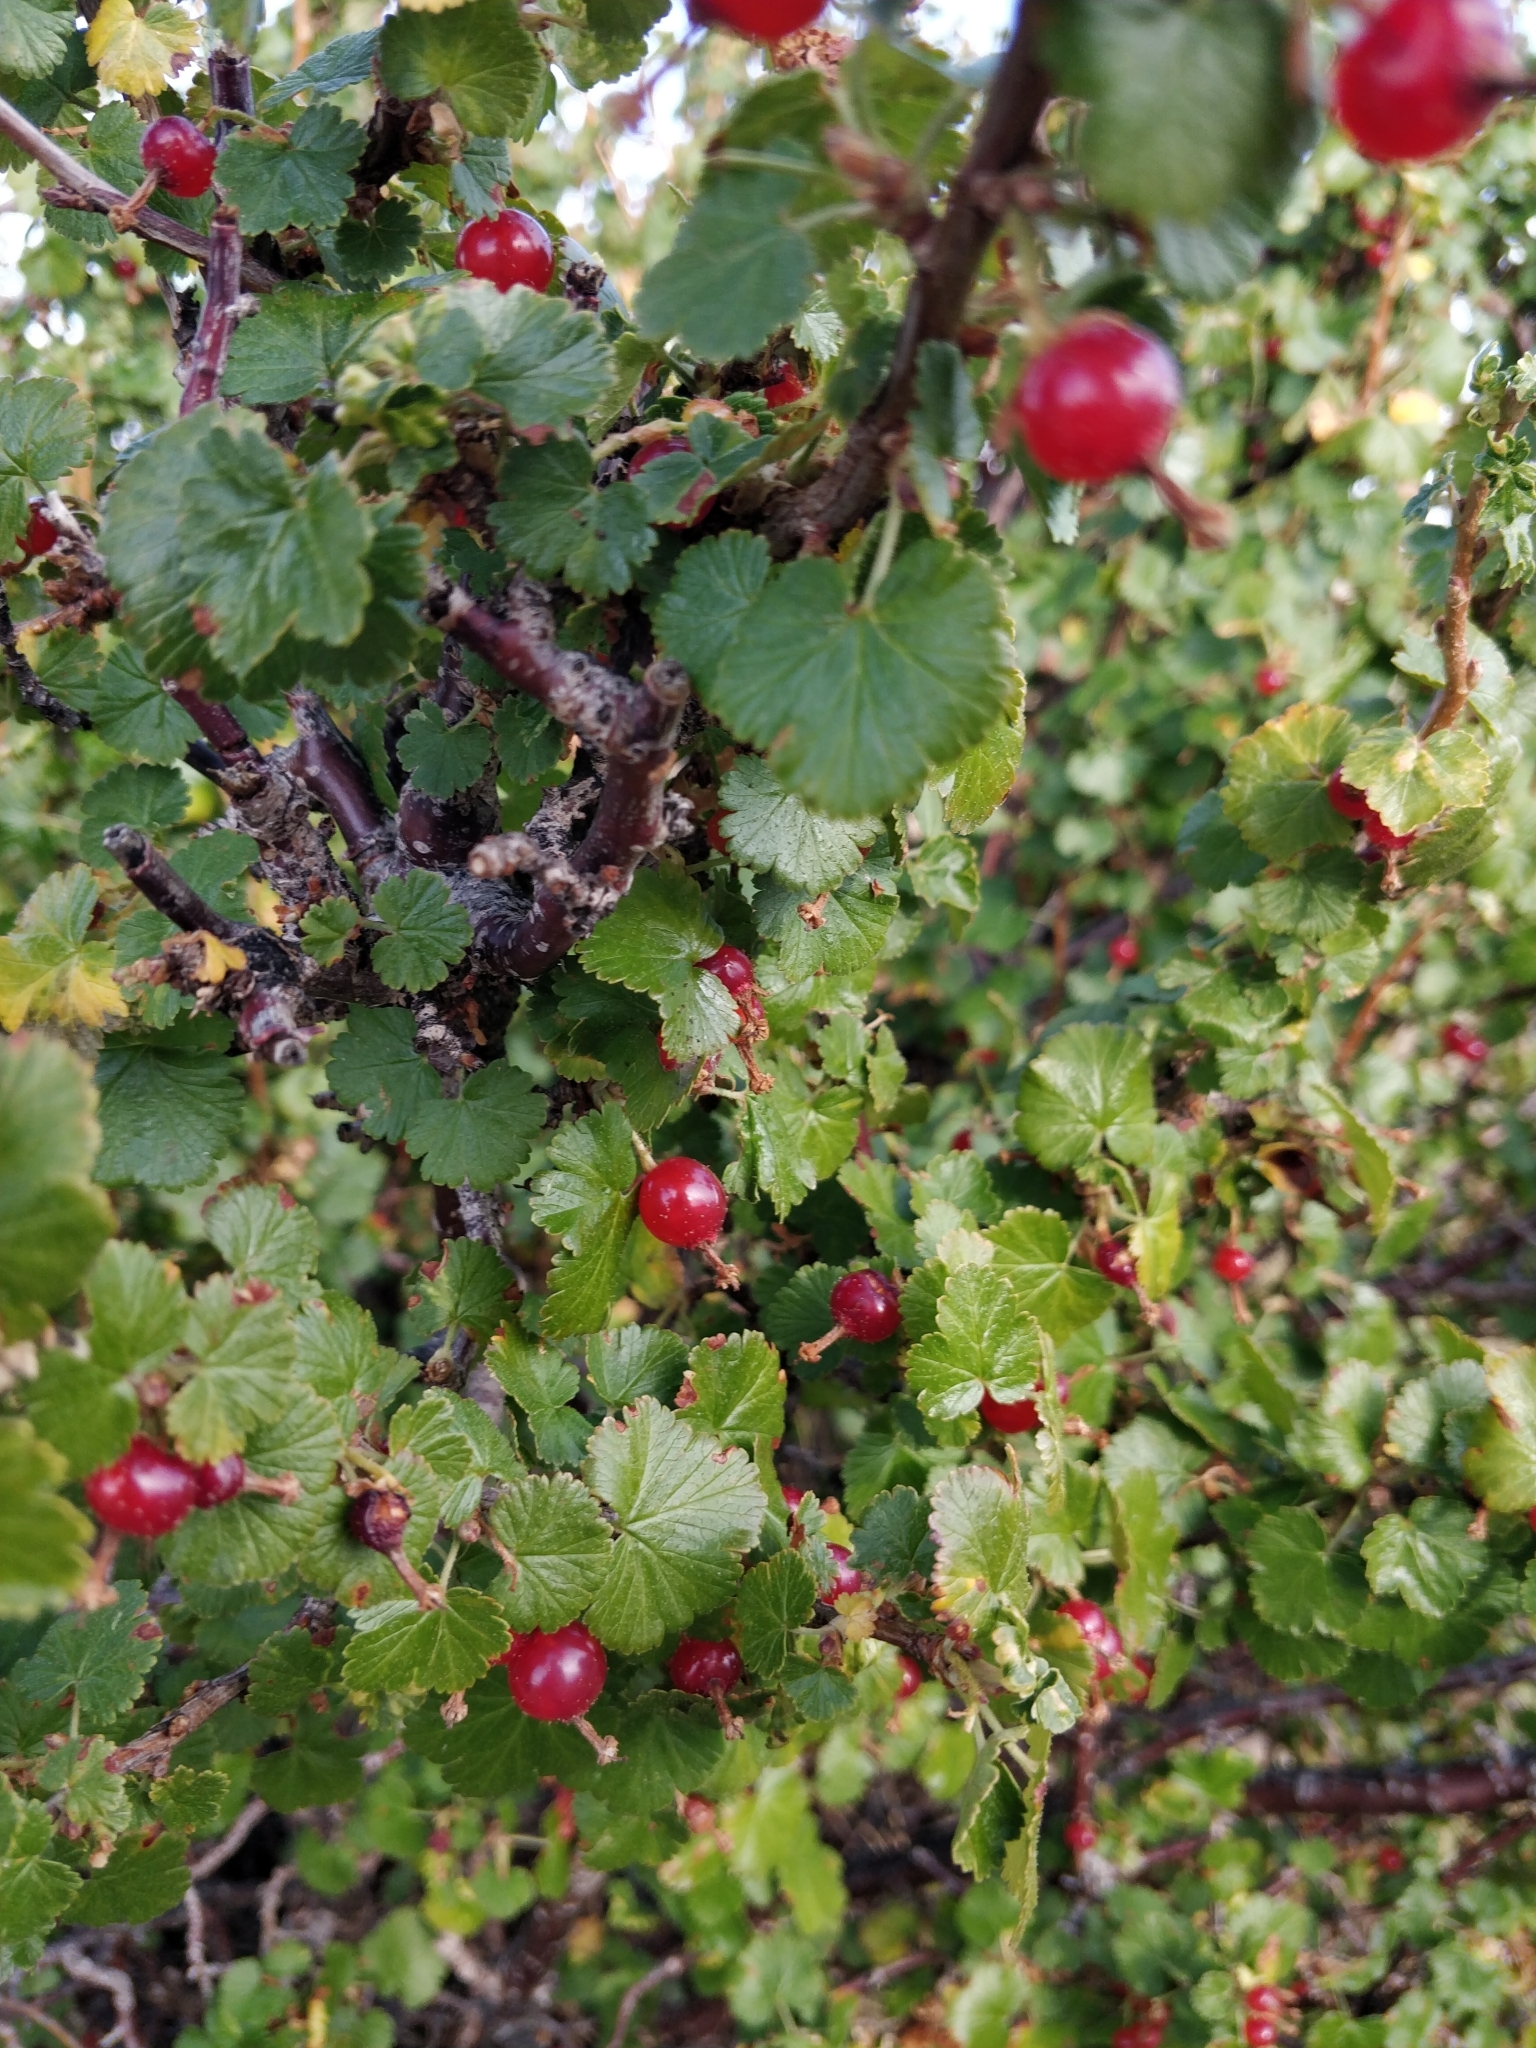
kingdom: Plantae
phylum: Tracheophyta
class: Magnoliopsida
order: Saxifragales
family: Grossulariaceae
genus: Ribes
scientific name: Ribes cereum
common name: Wax currant
